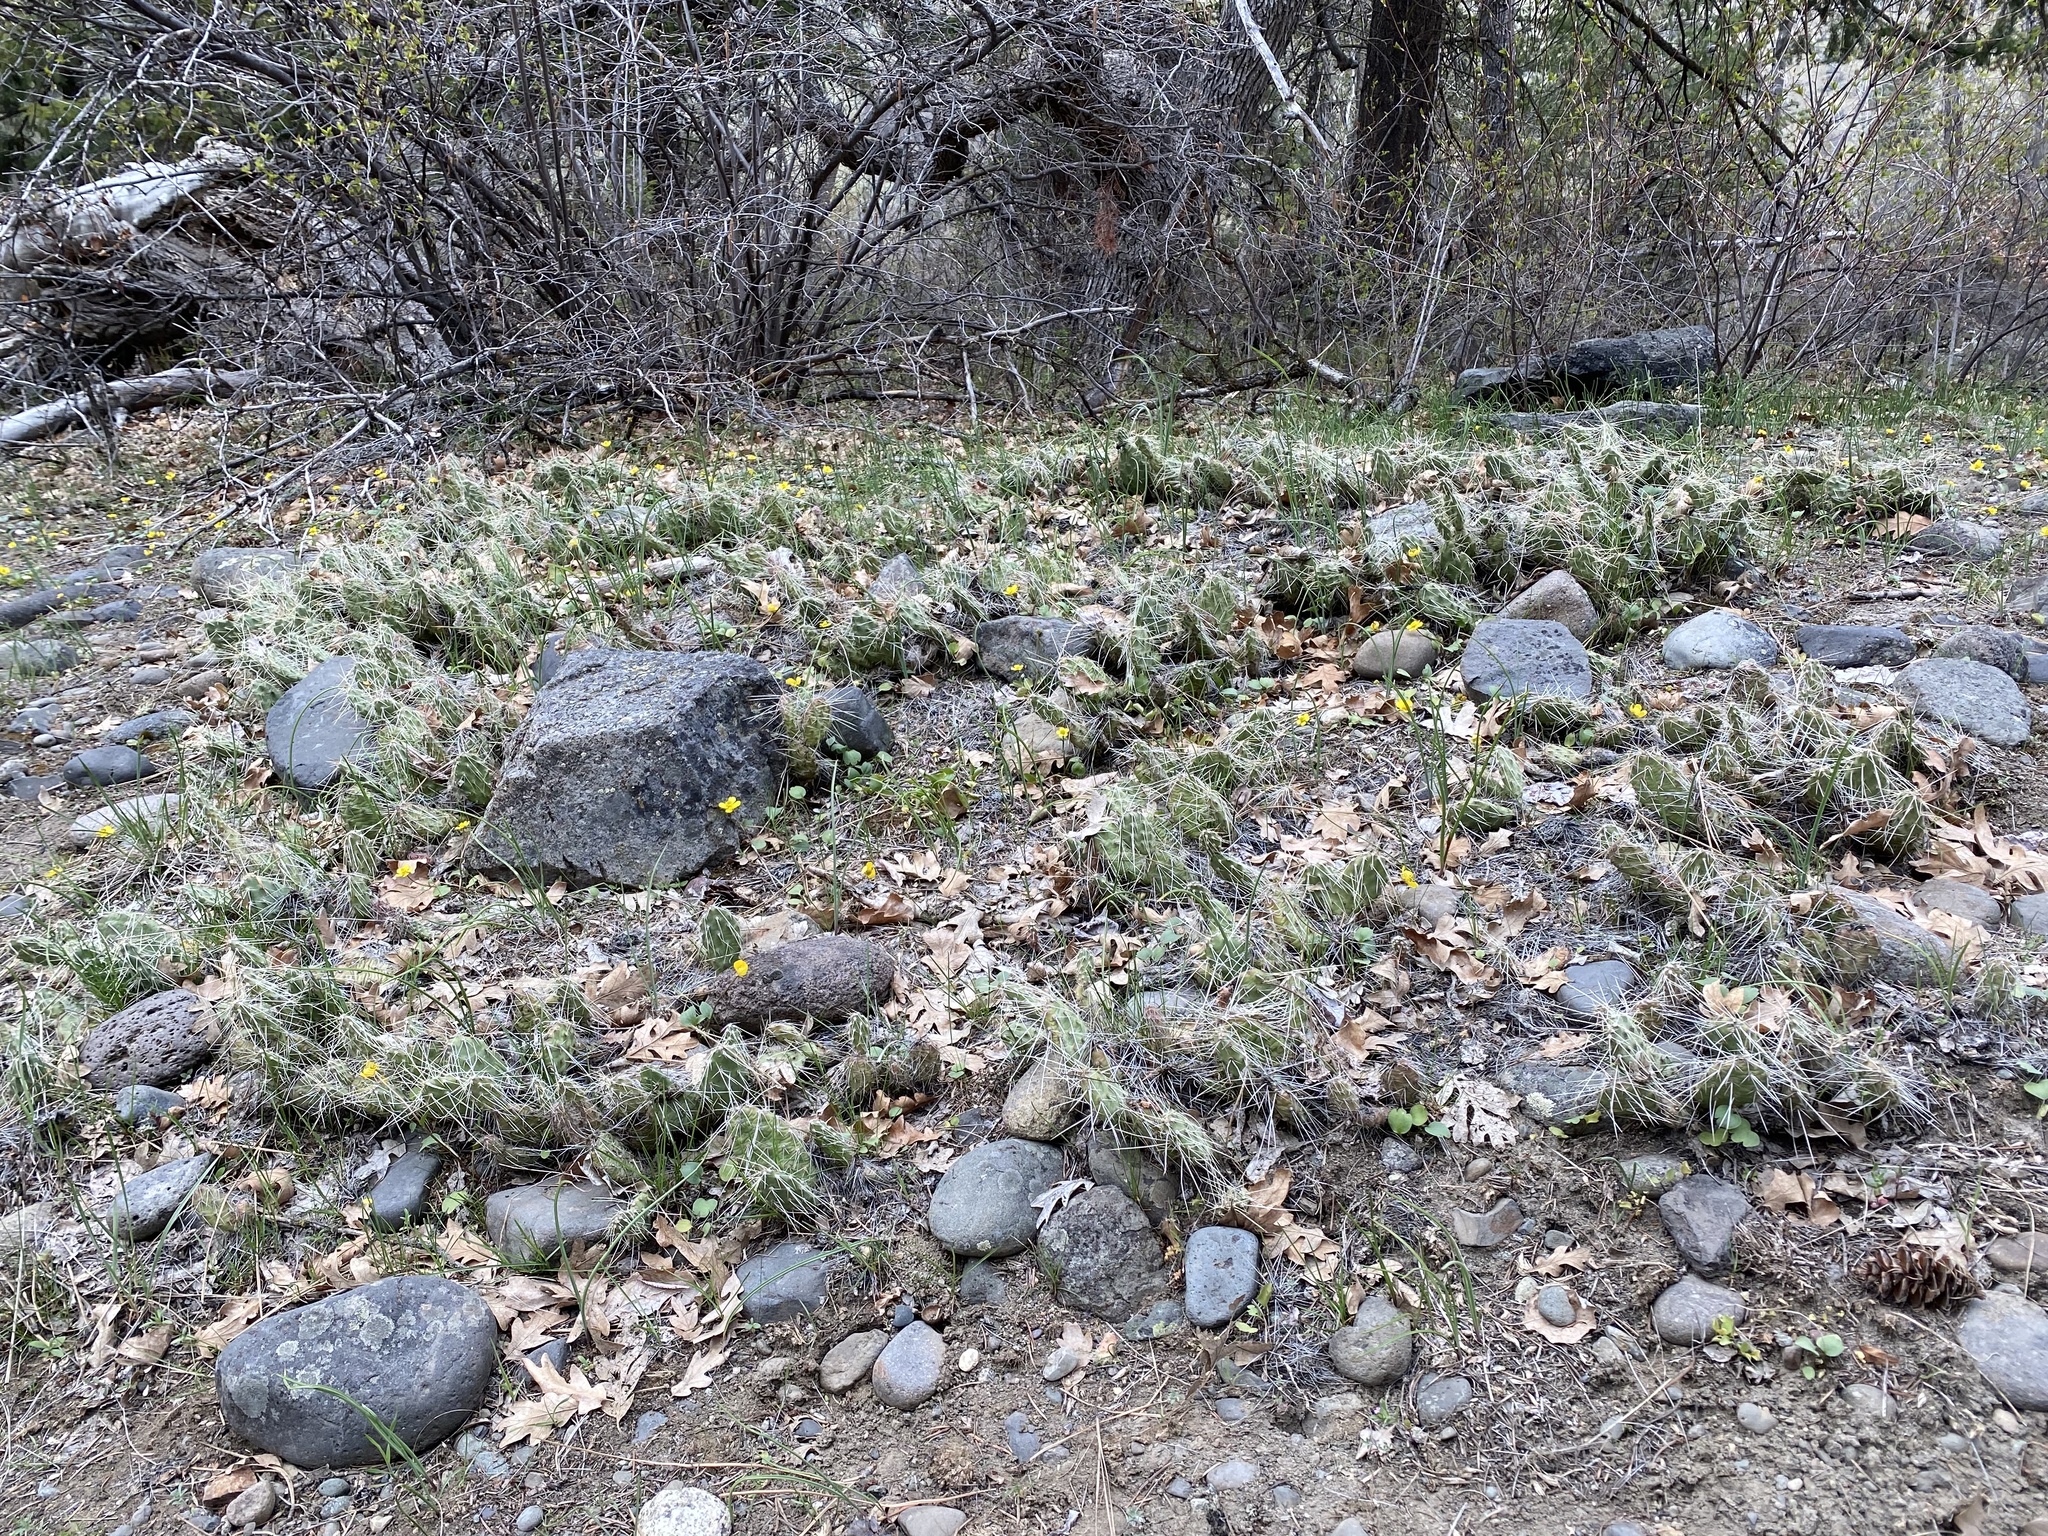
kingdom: Plantae
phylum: Tracheophyta
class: Magnoliopsida
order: Caryophyllales
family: Cactaceae
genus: Opuntia
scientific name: Opuntia columbiana
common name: Columbia prickly-pear
